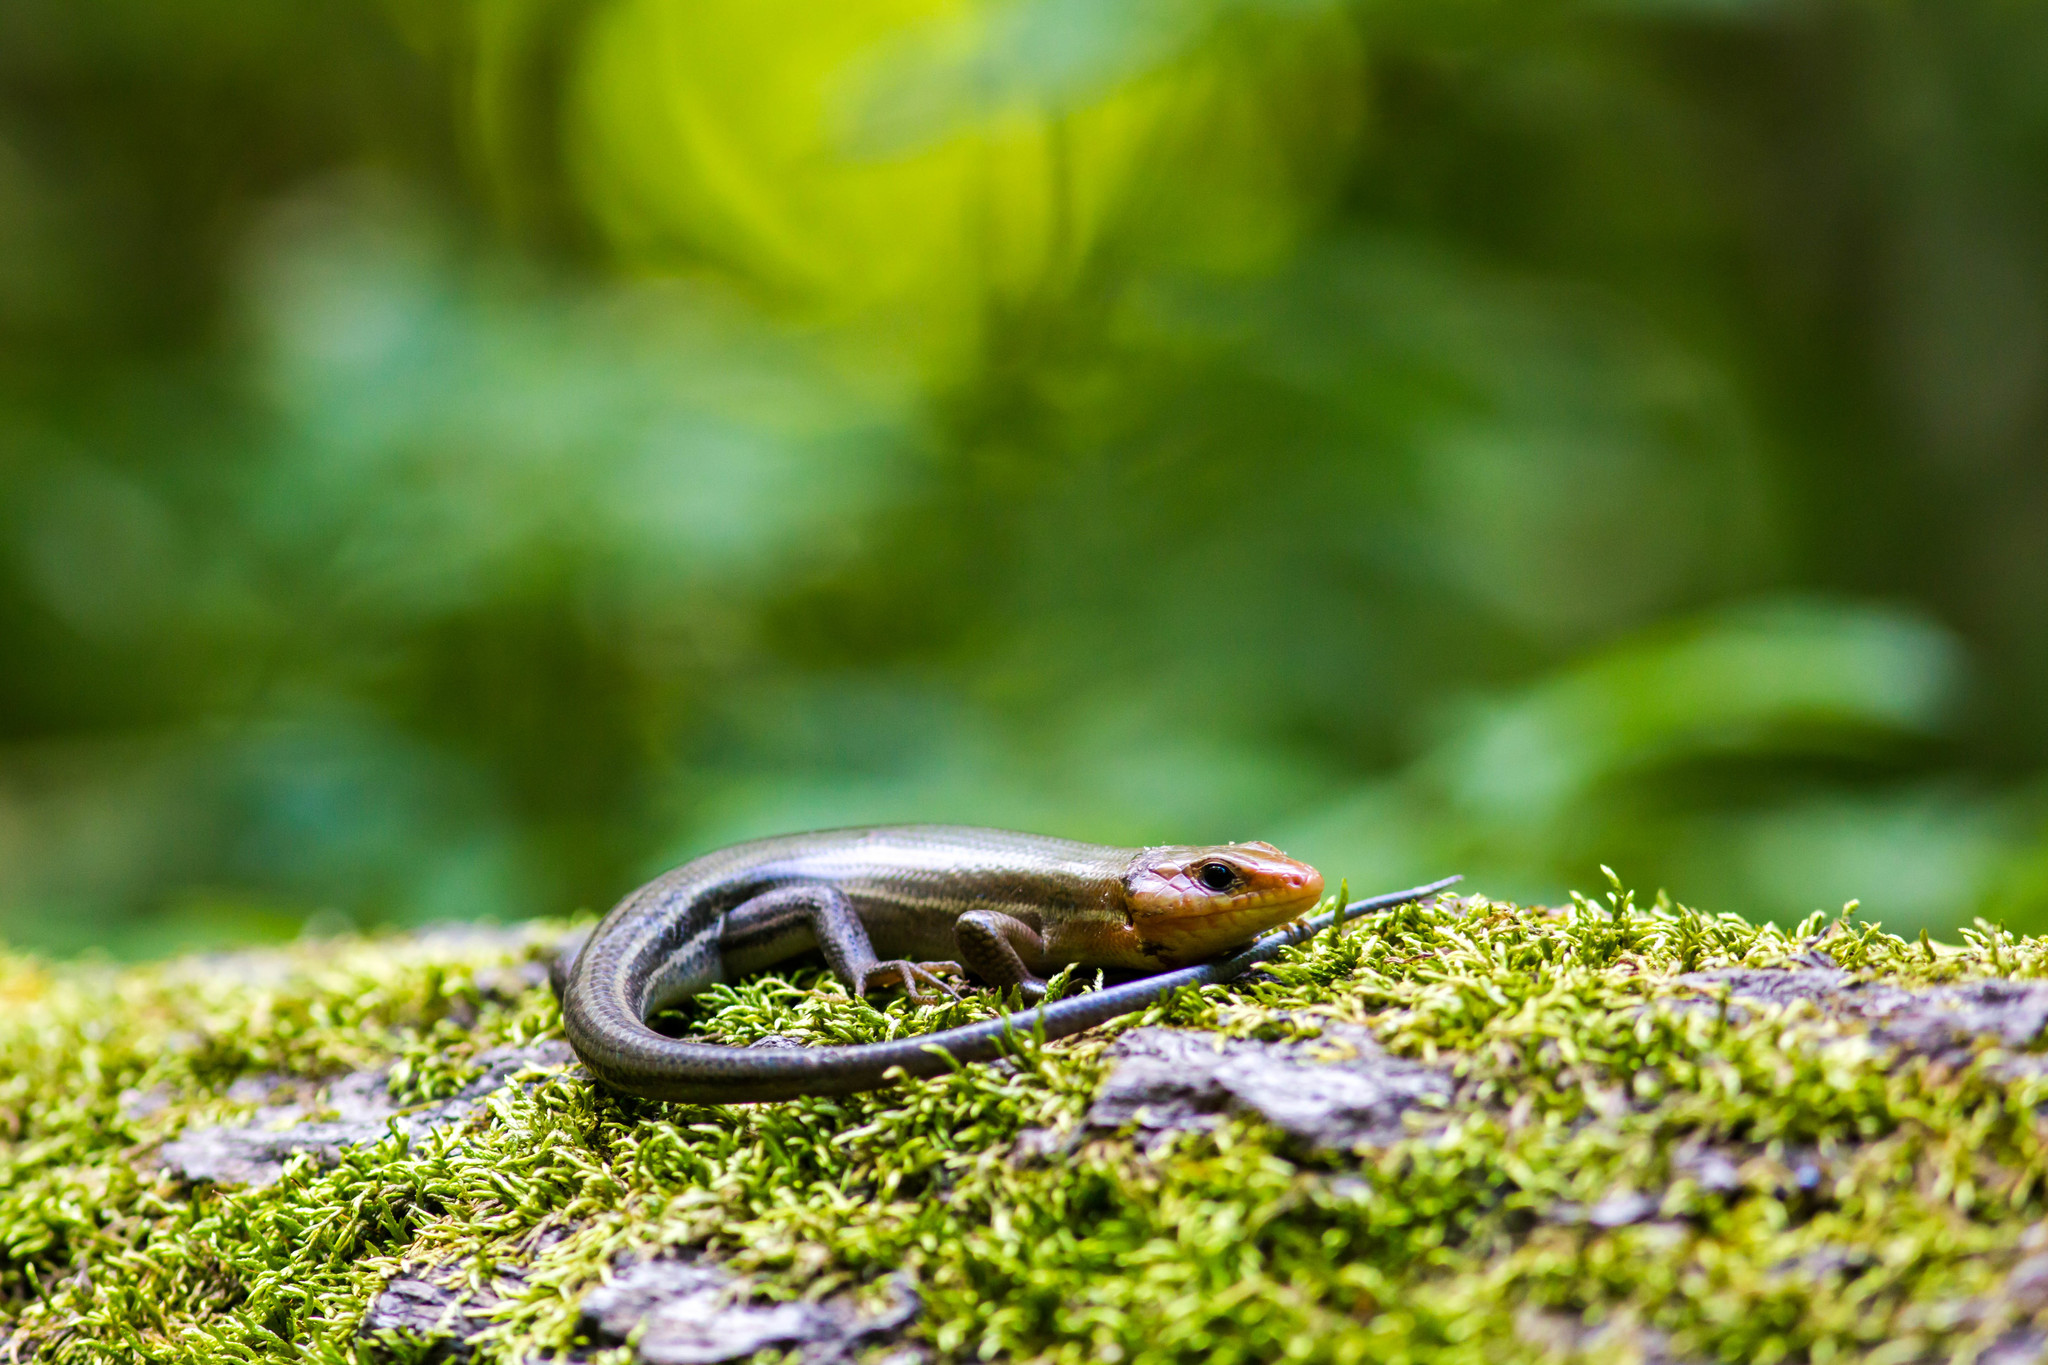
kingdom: Animalia
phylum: Chordata
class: Squamata
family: Scincidae
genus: Plestiodon
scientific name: Plestiodon laticeps
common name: Broadhead skink
